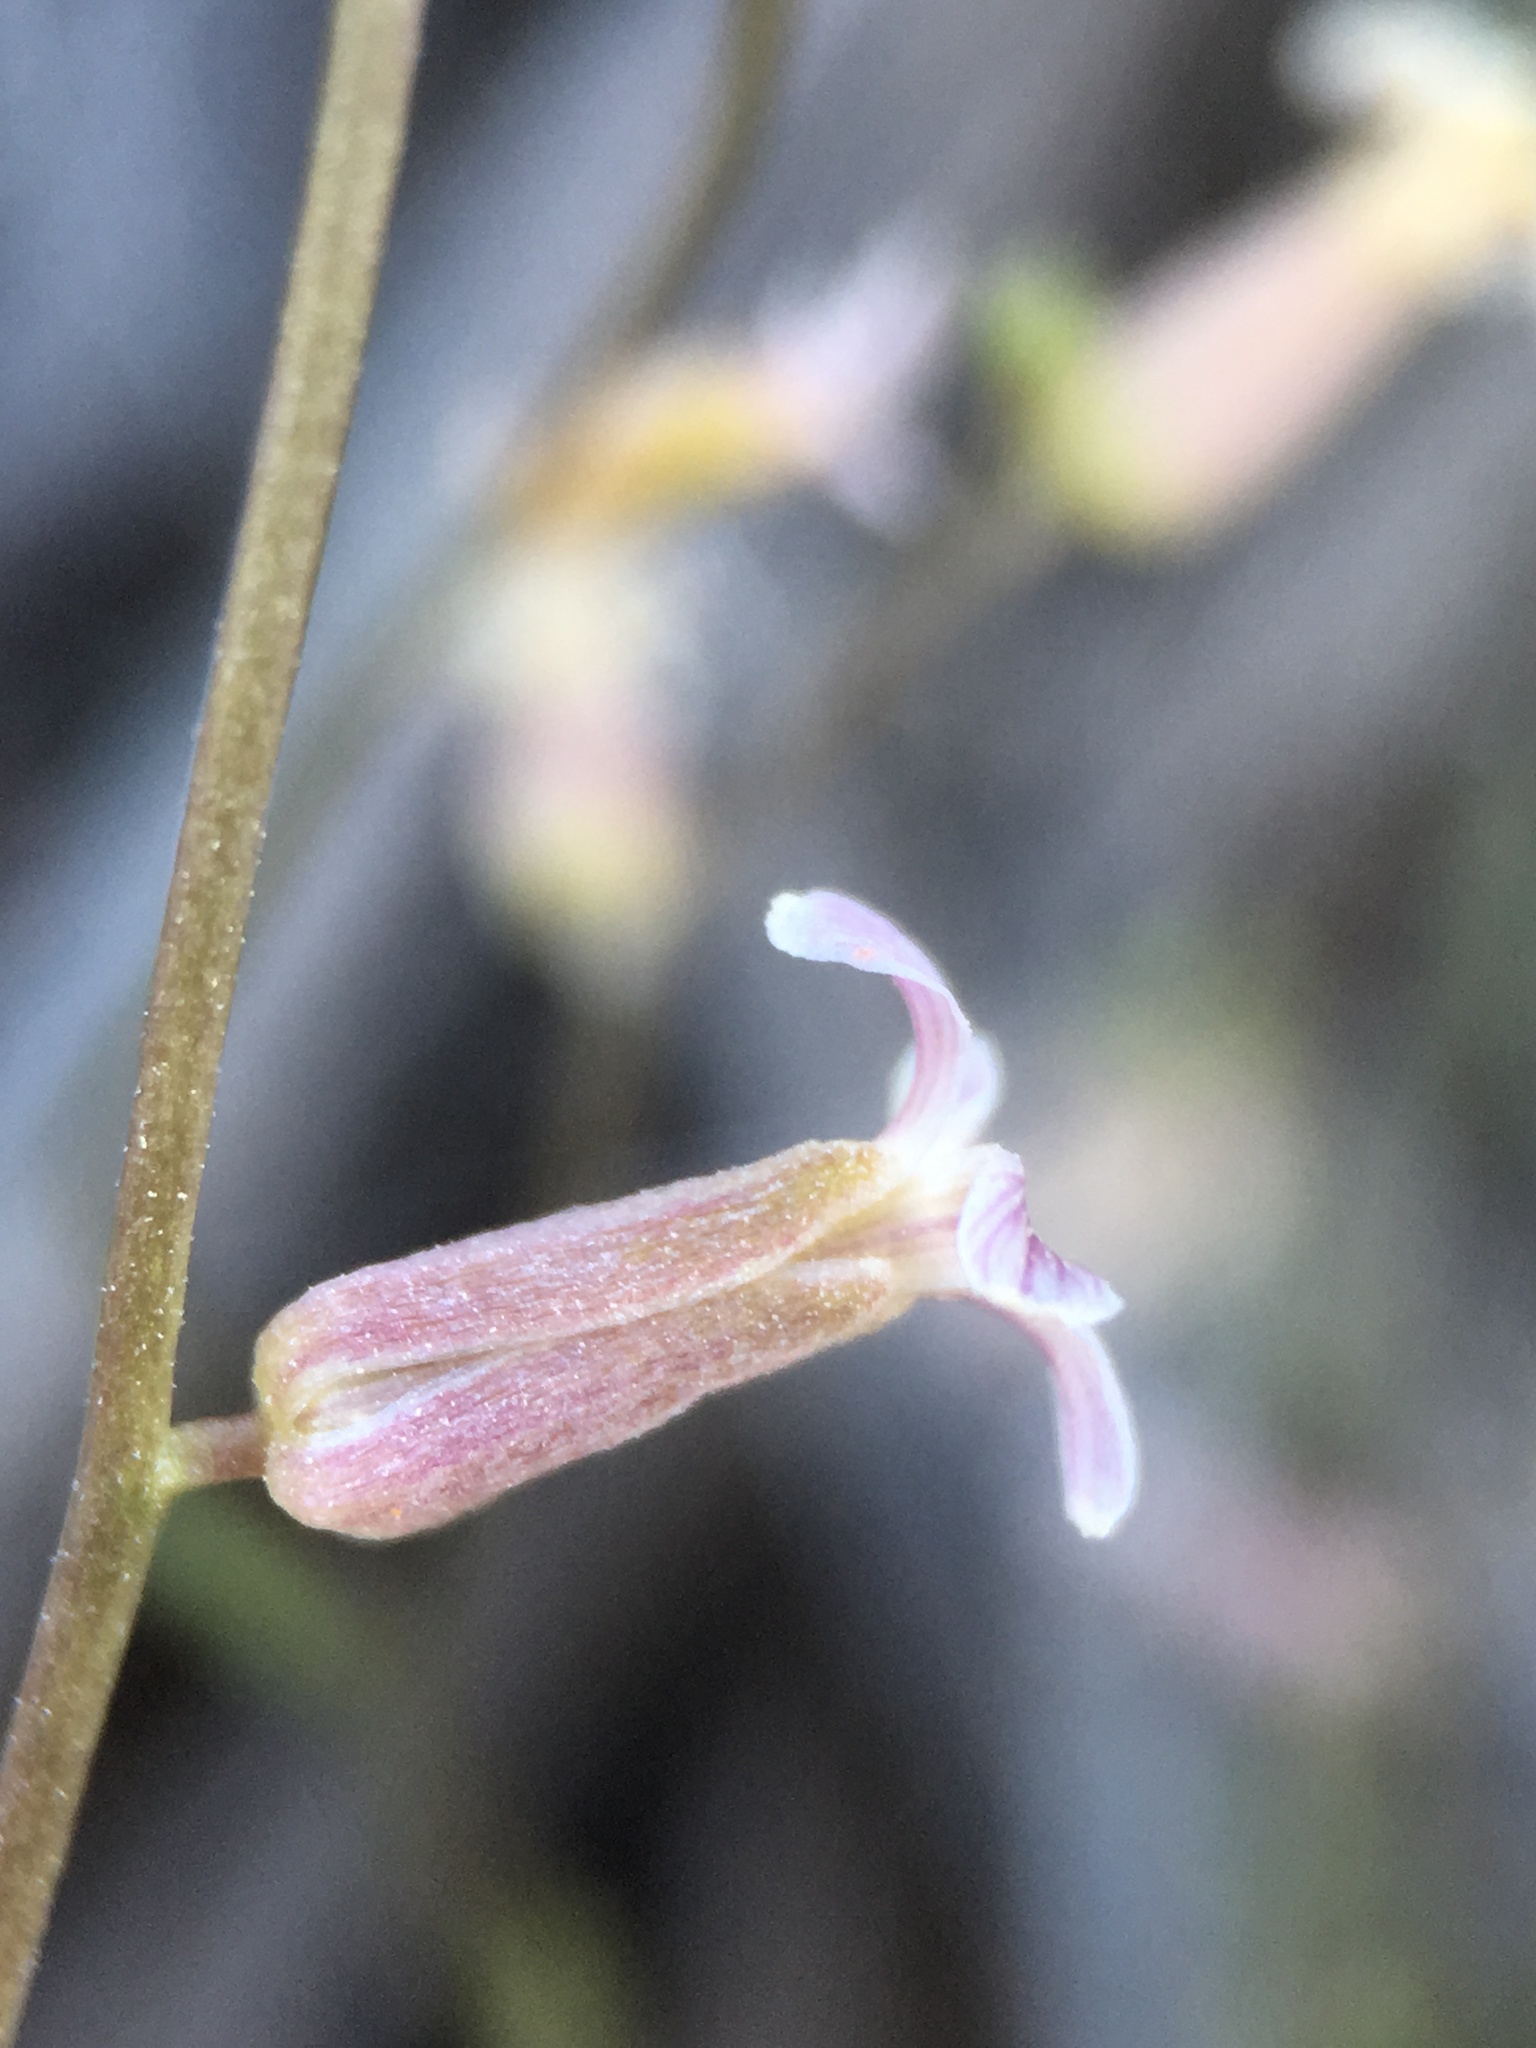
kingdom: Plantae
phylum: Tracheophyta
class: Magnoliopsida
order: Brassicales
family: Brassicaceae
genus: Streptanthus
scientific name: Streptanthus cooperi
